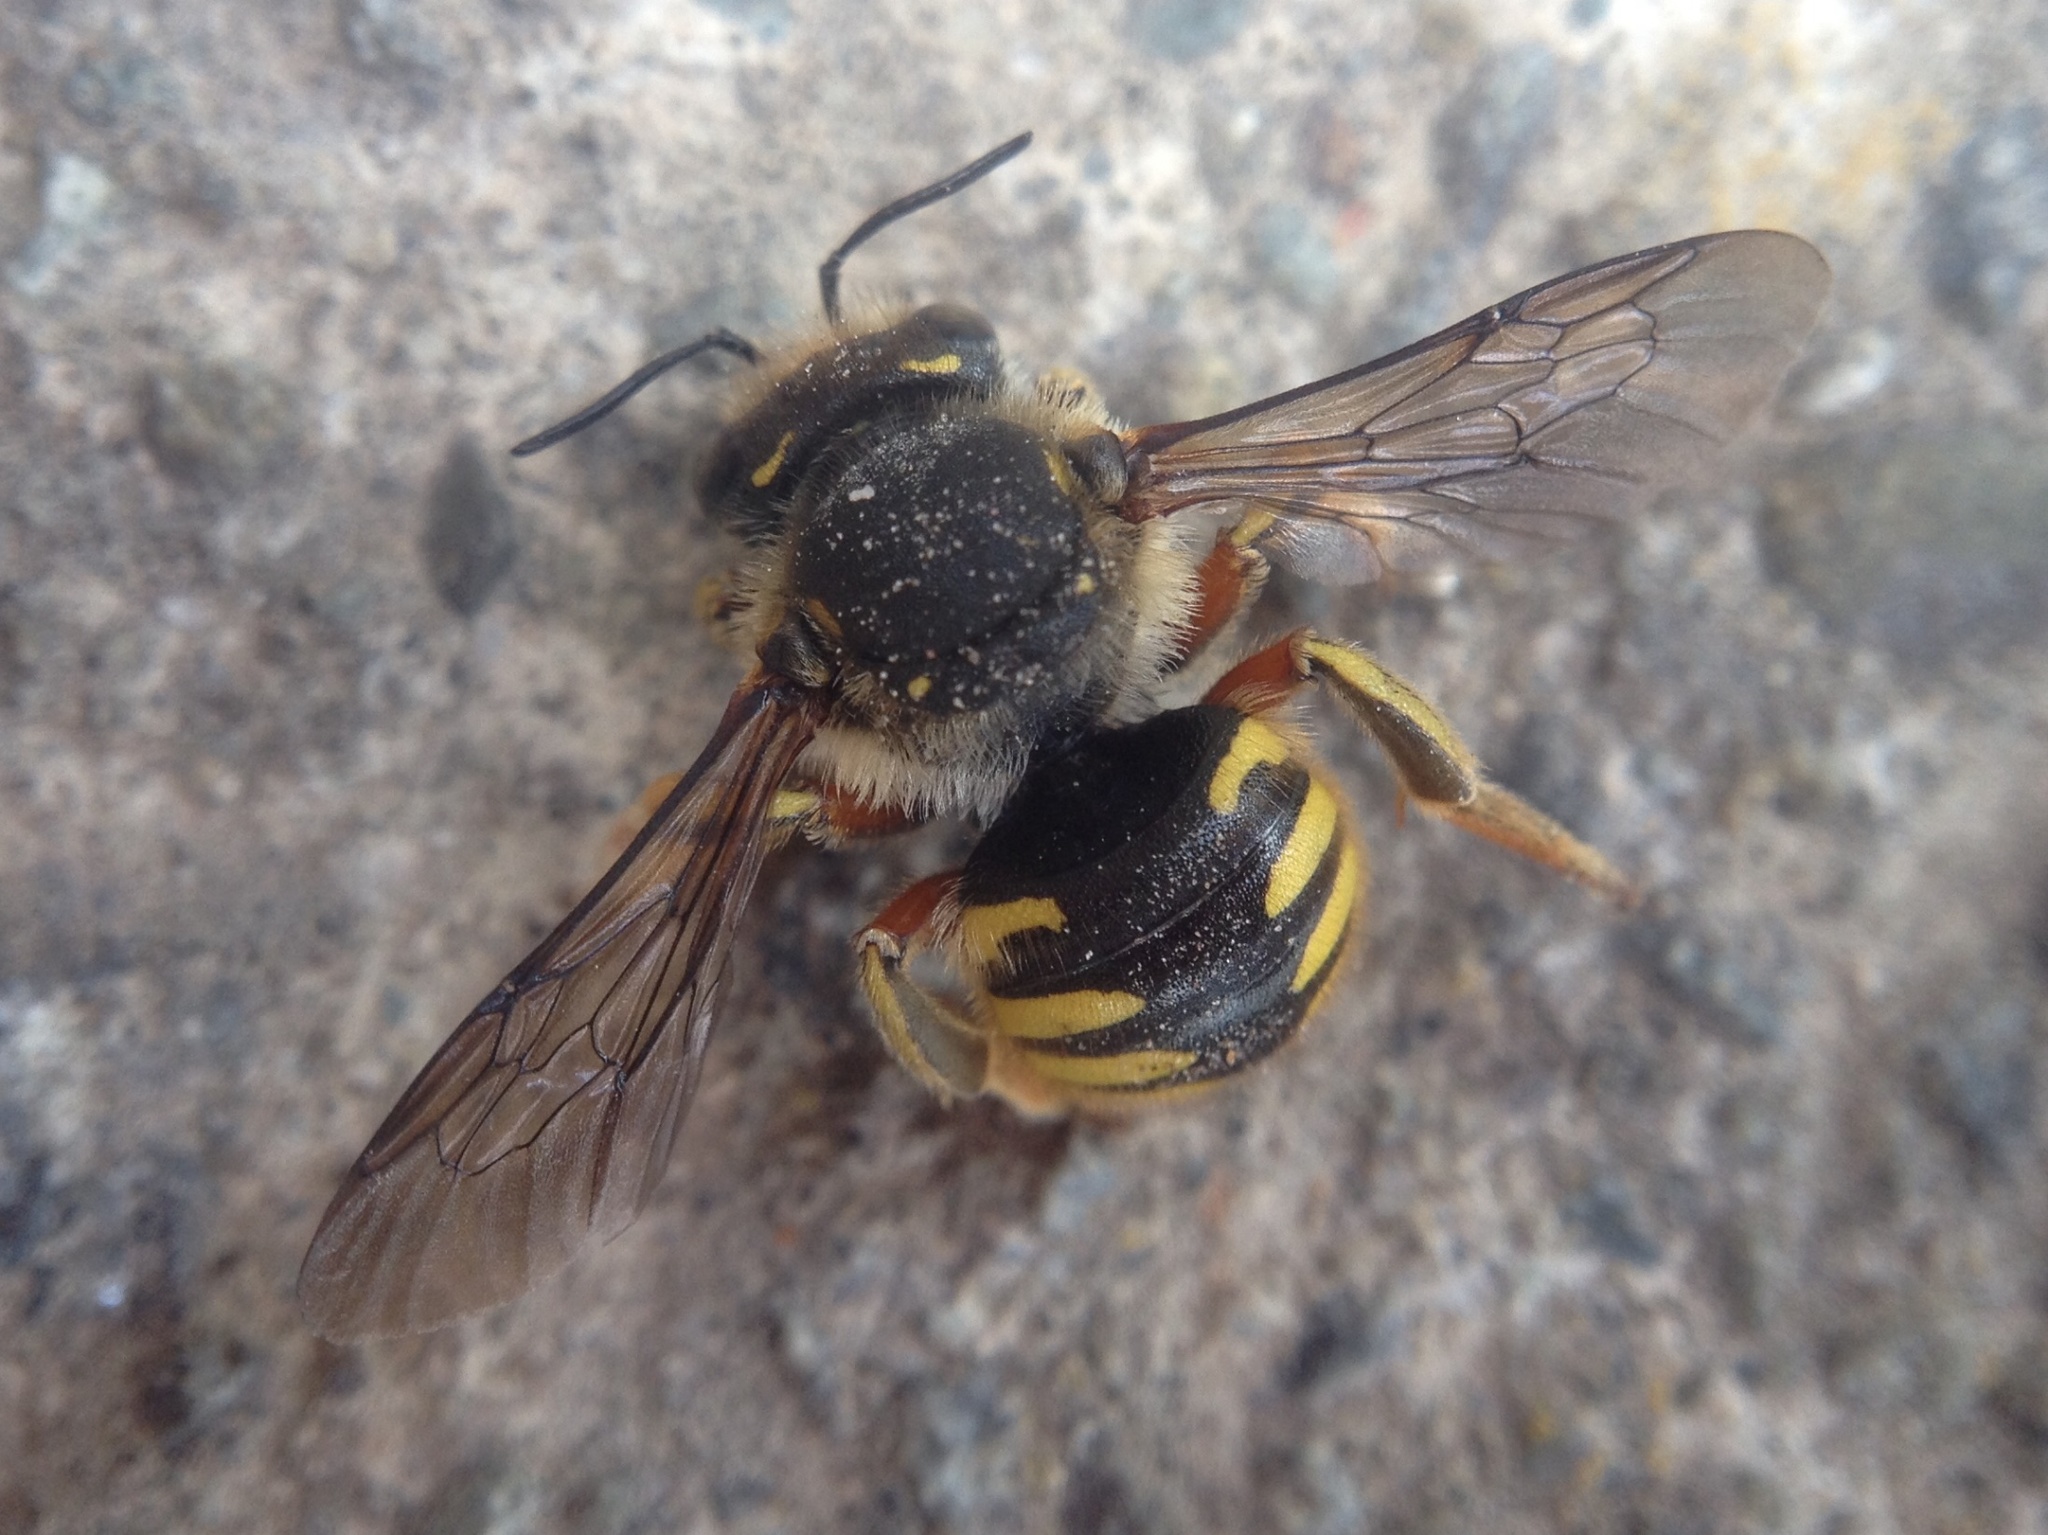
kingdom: Animalia
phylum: Arthropoda
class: Insecta
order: Hymenoptera
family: Megachilidae
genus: Anthidium
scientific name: Anthidium manicatum
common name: Wool carder bee
